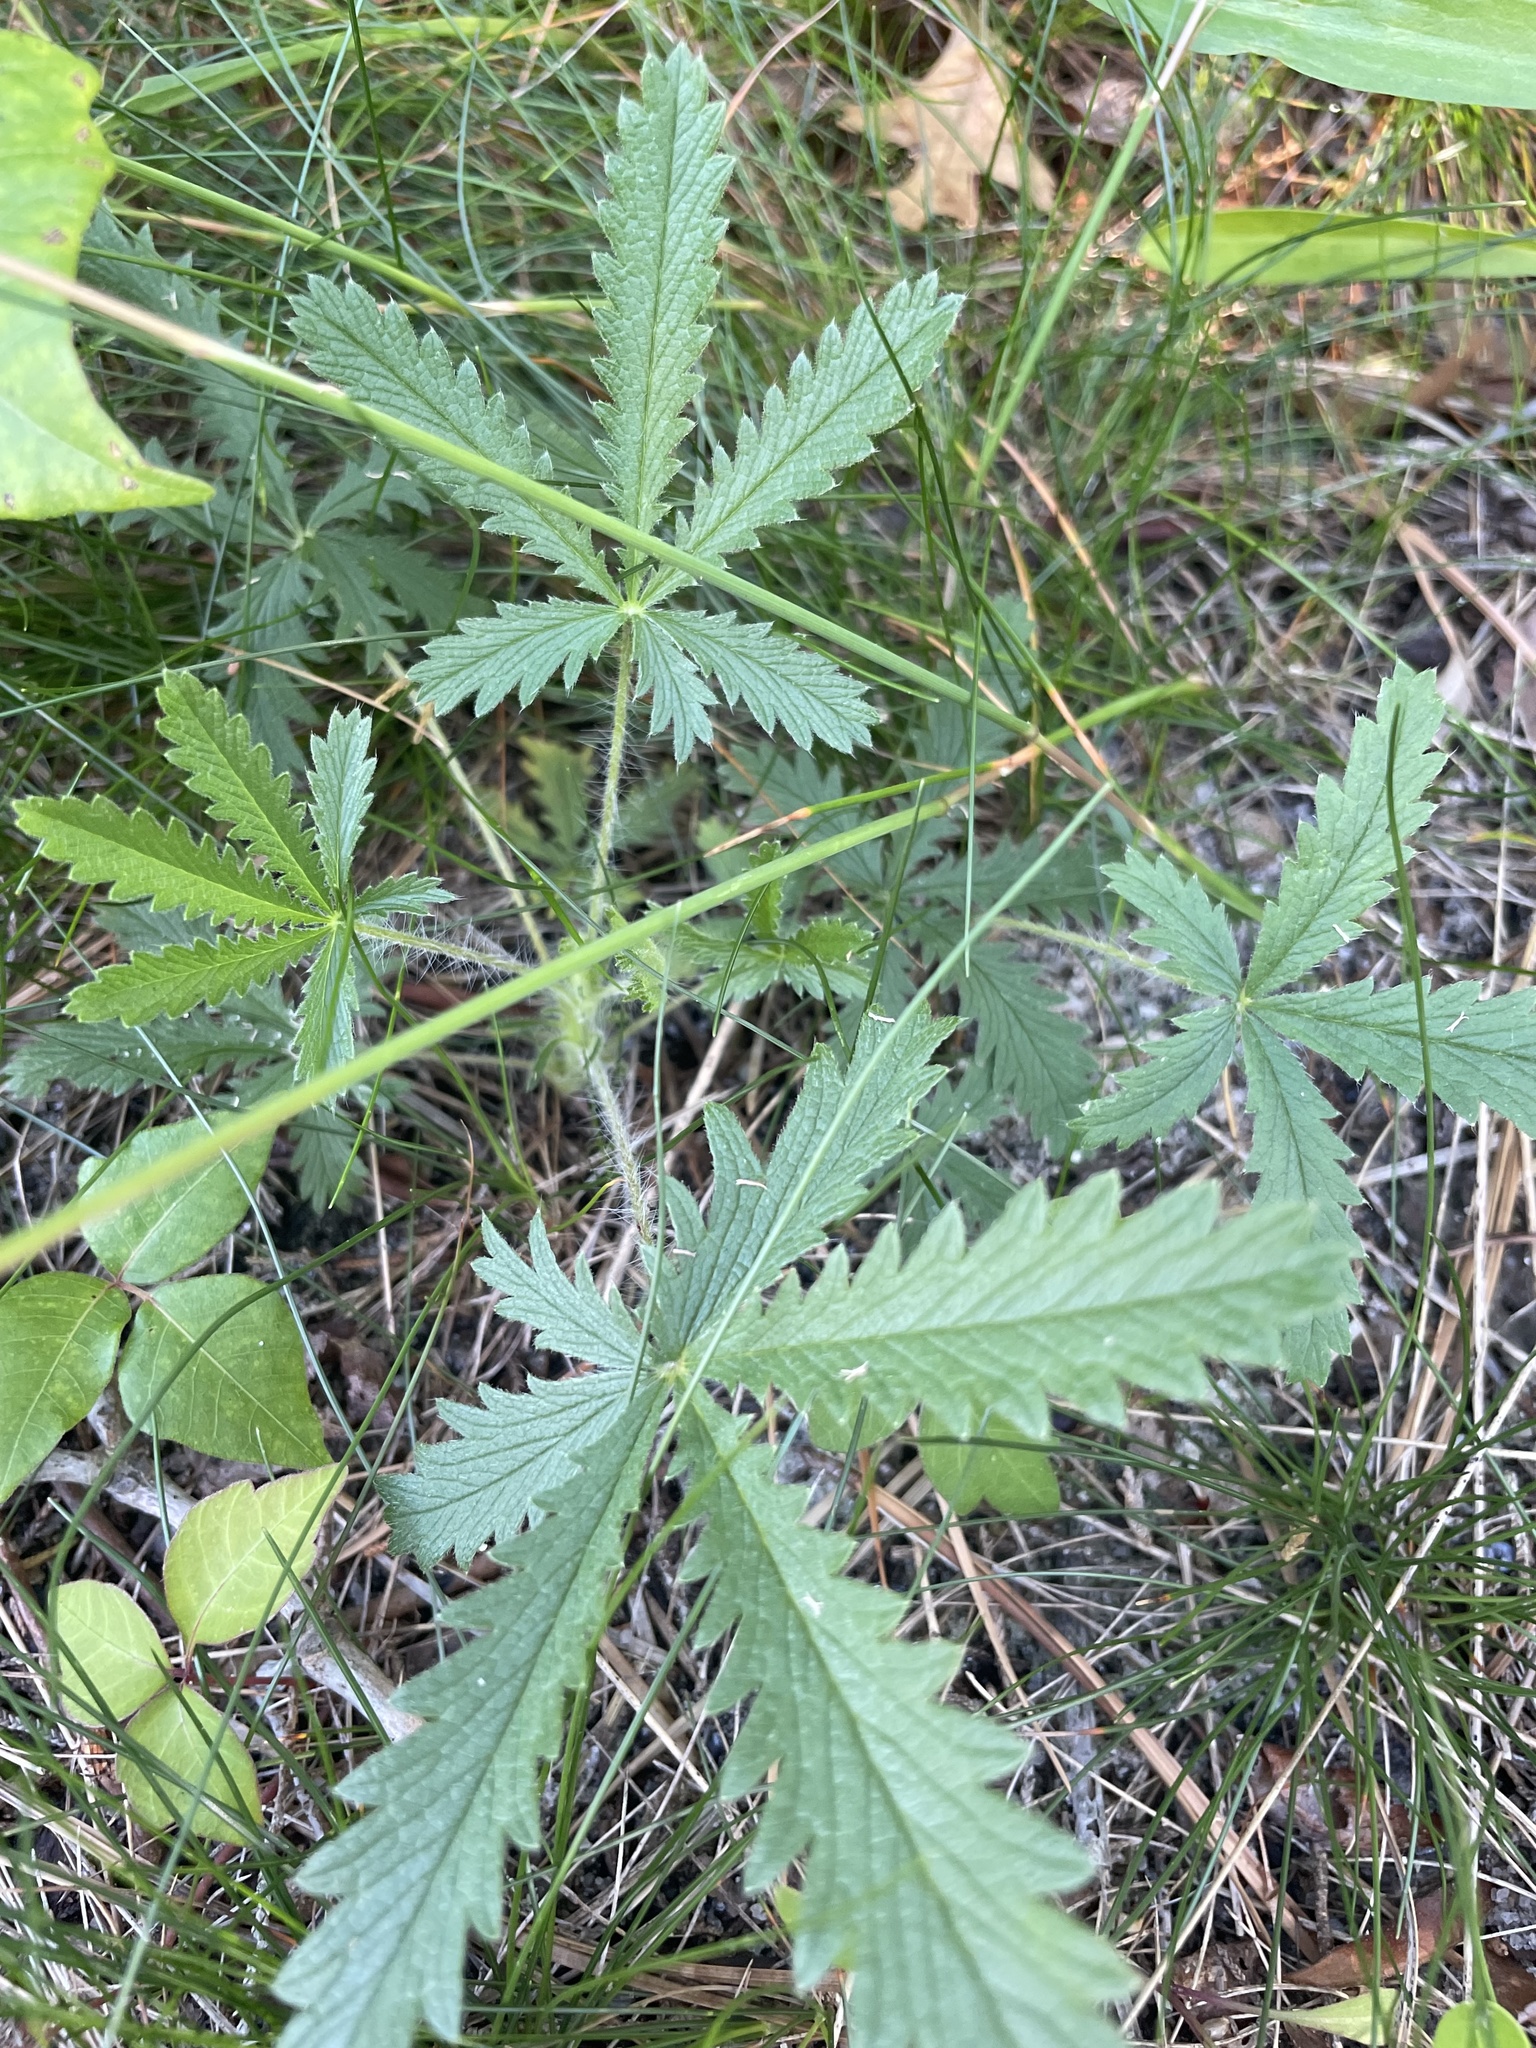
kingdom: Plantae
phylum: Tracheophyta
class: Magnoliopsida
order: Rosales
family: Rosaceae
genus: Potentilla
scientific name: Potentilla recta
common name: Sulphur cinquefoil
